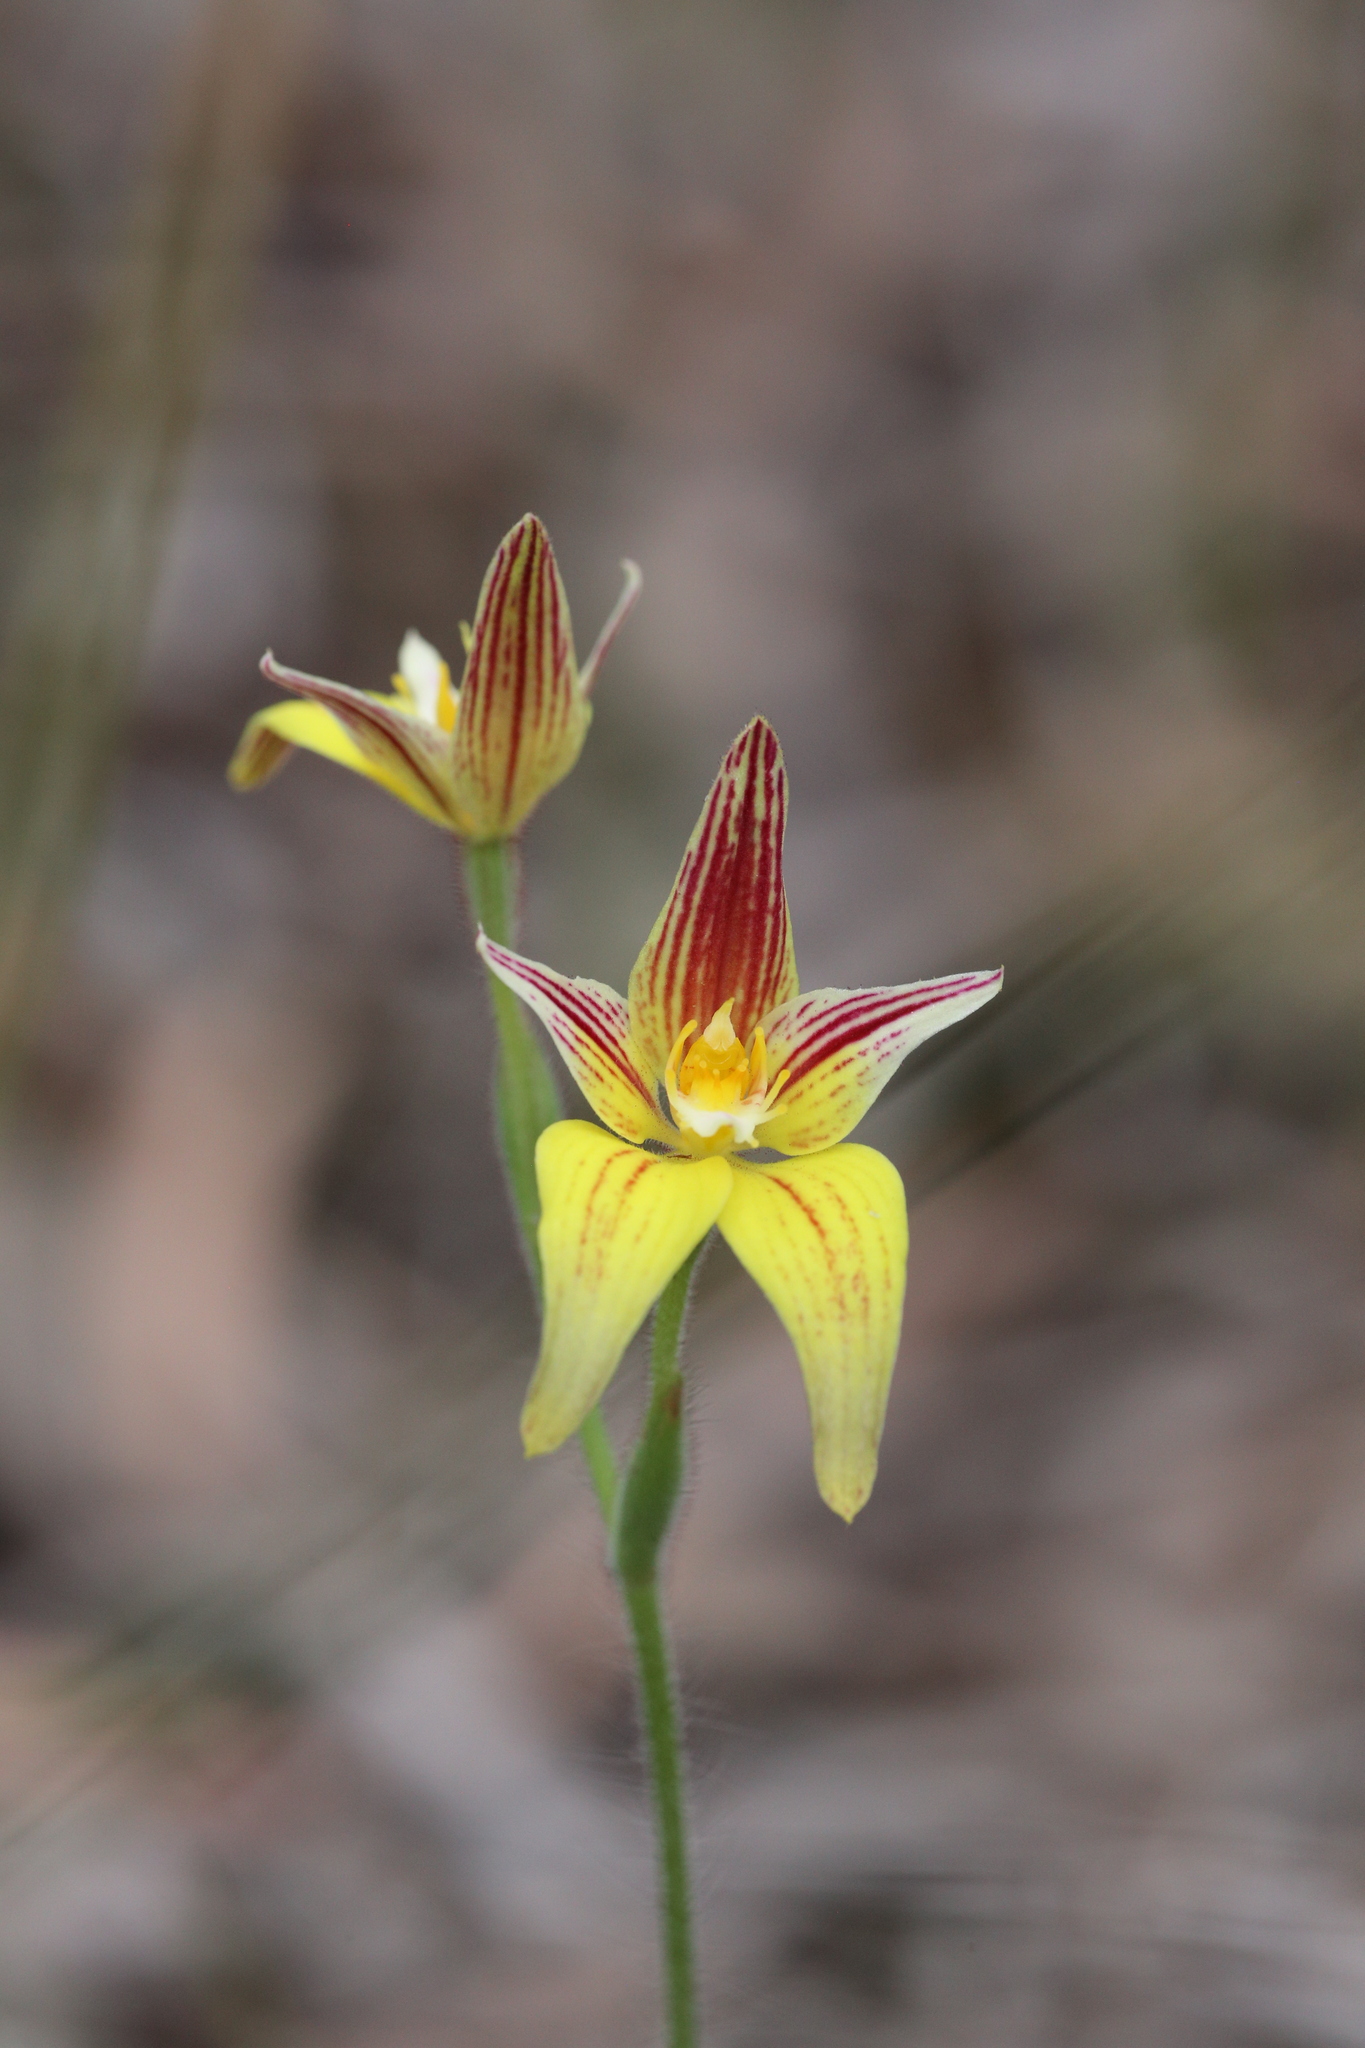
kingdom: Plantae
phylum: Tracheophyta
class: Liliopsida
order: Asparagales
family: Orchidaceae
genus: Caladenia
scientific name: Caladenia flava
